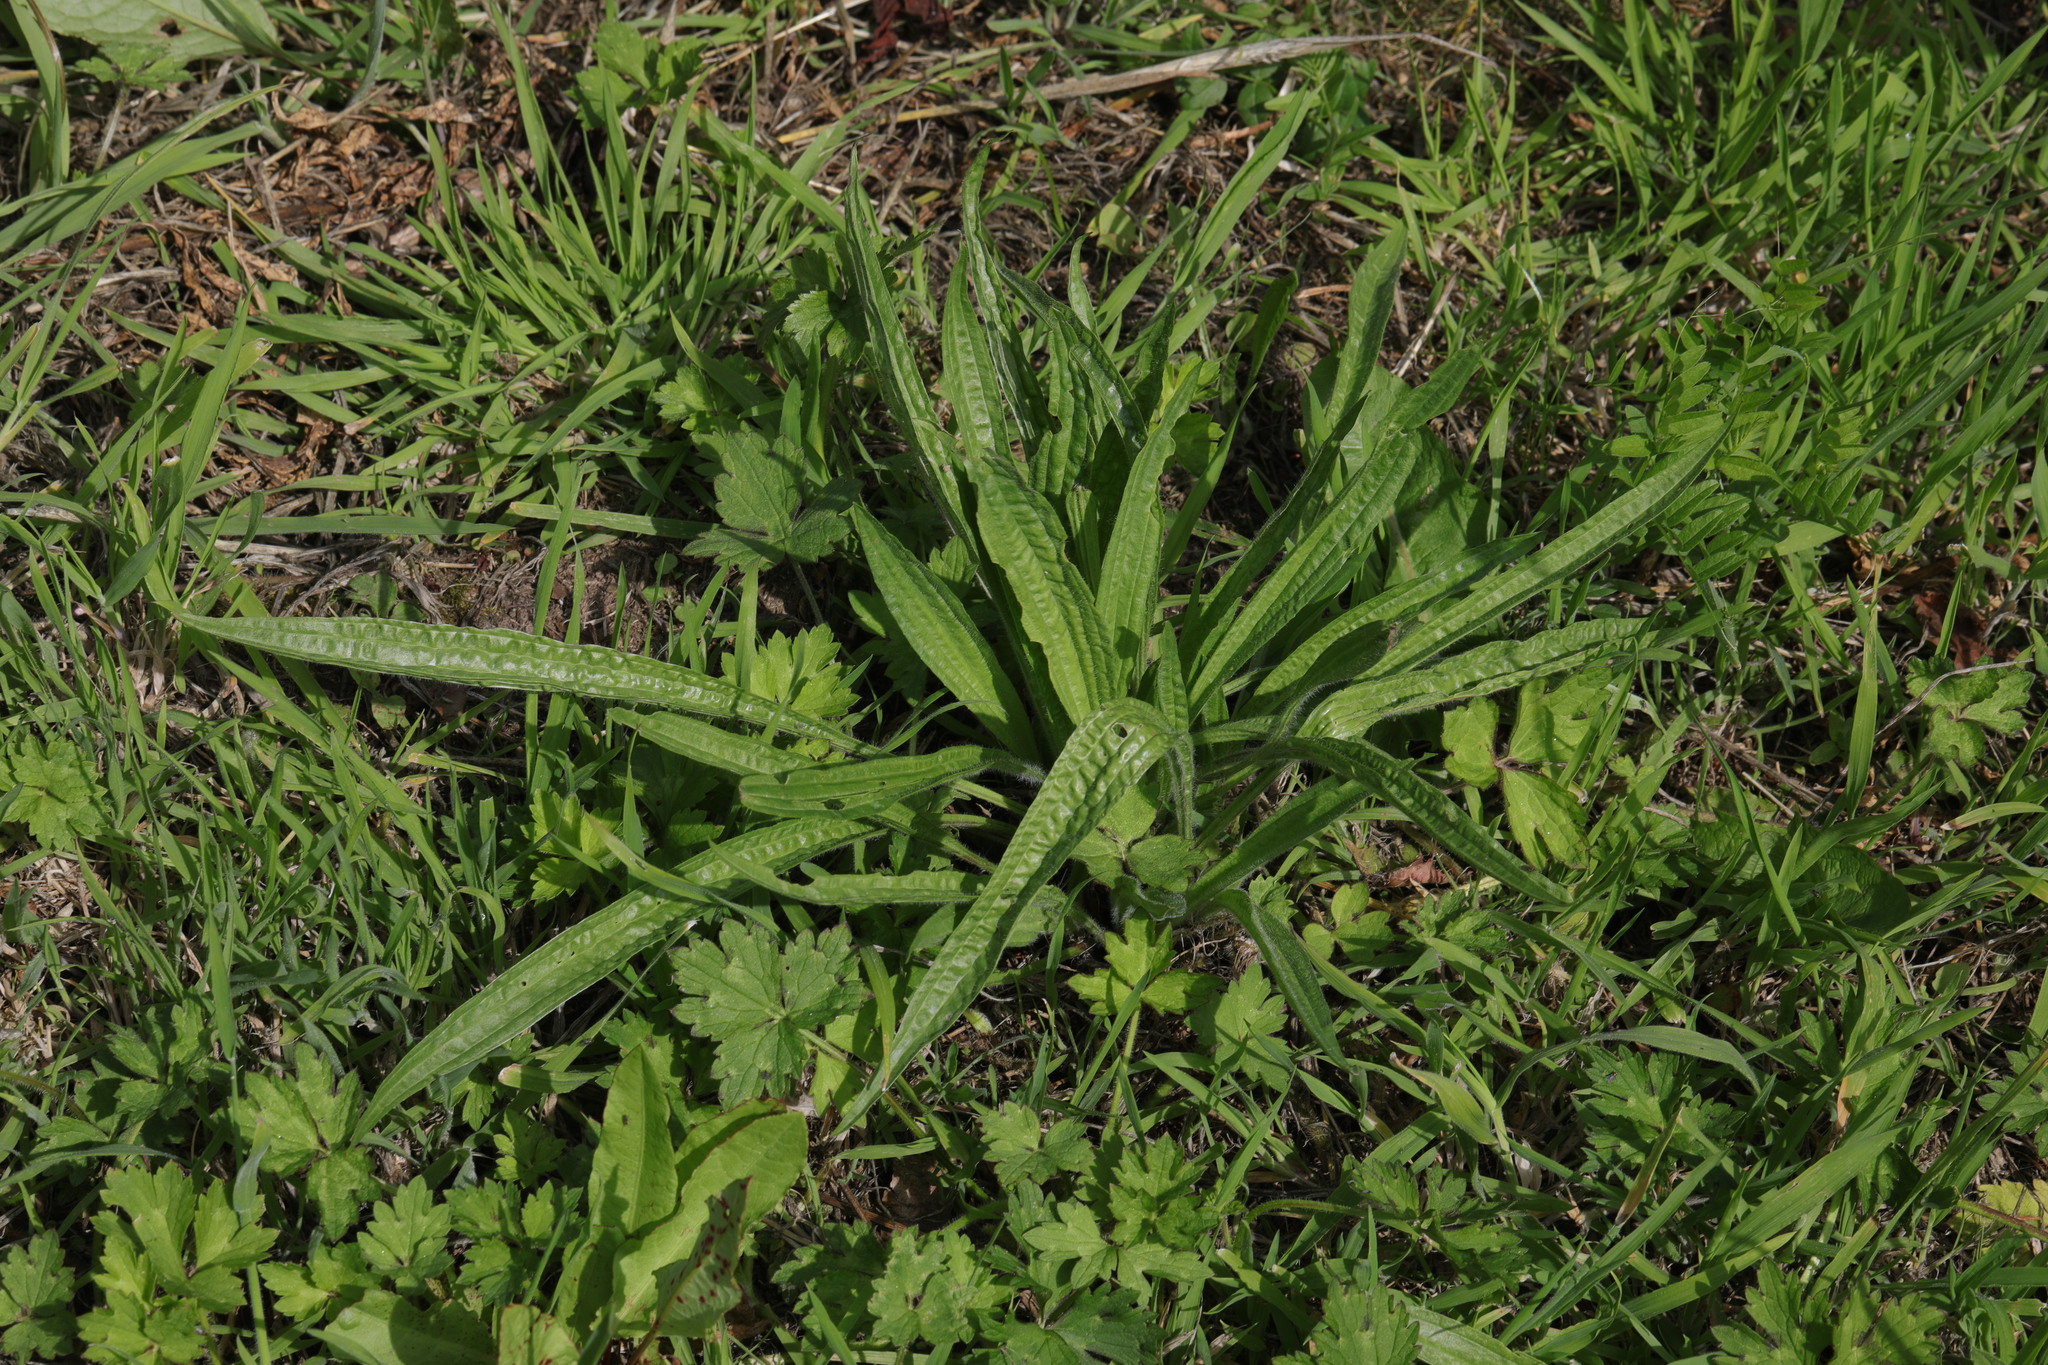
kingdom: Plantae
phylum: Tracheophyta
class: Magnoliopsida
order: Lamiales
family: Plantaginaceae
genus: Plantago
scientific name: Plantago lanceolata
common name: Ribwort plantain
